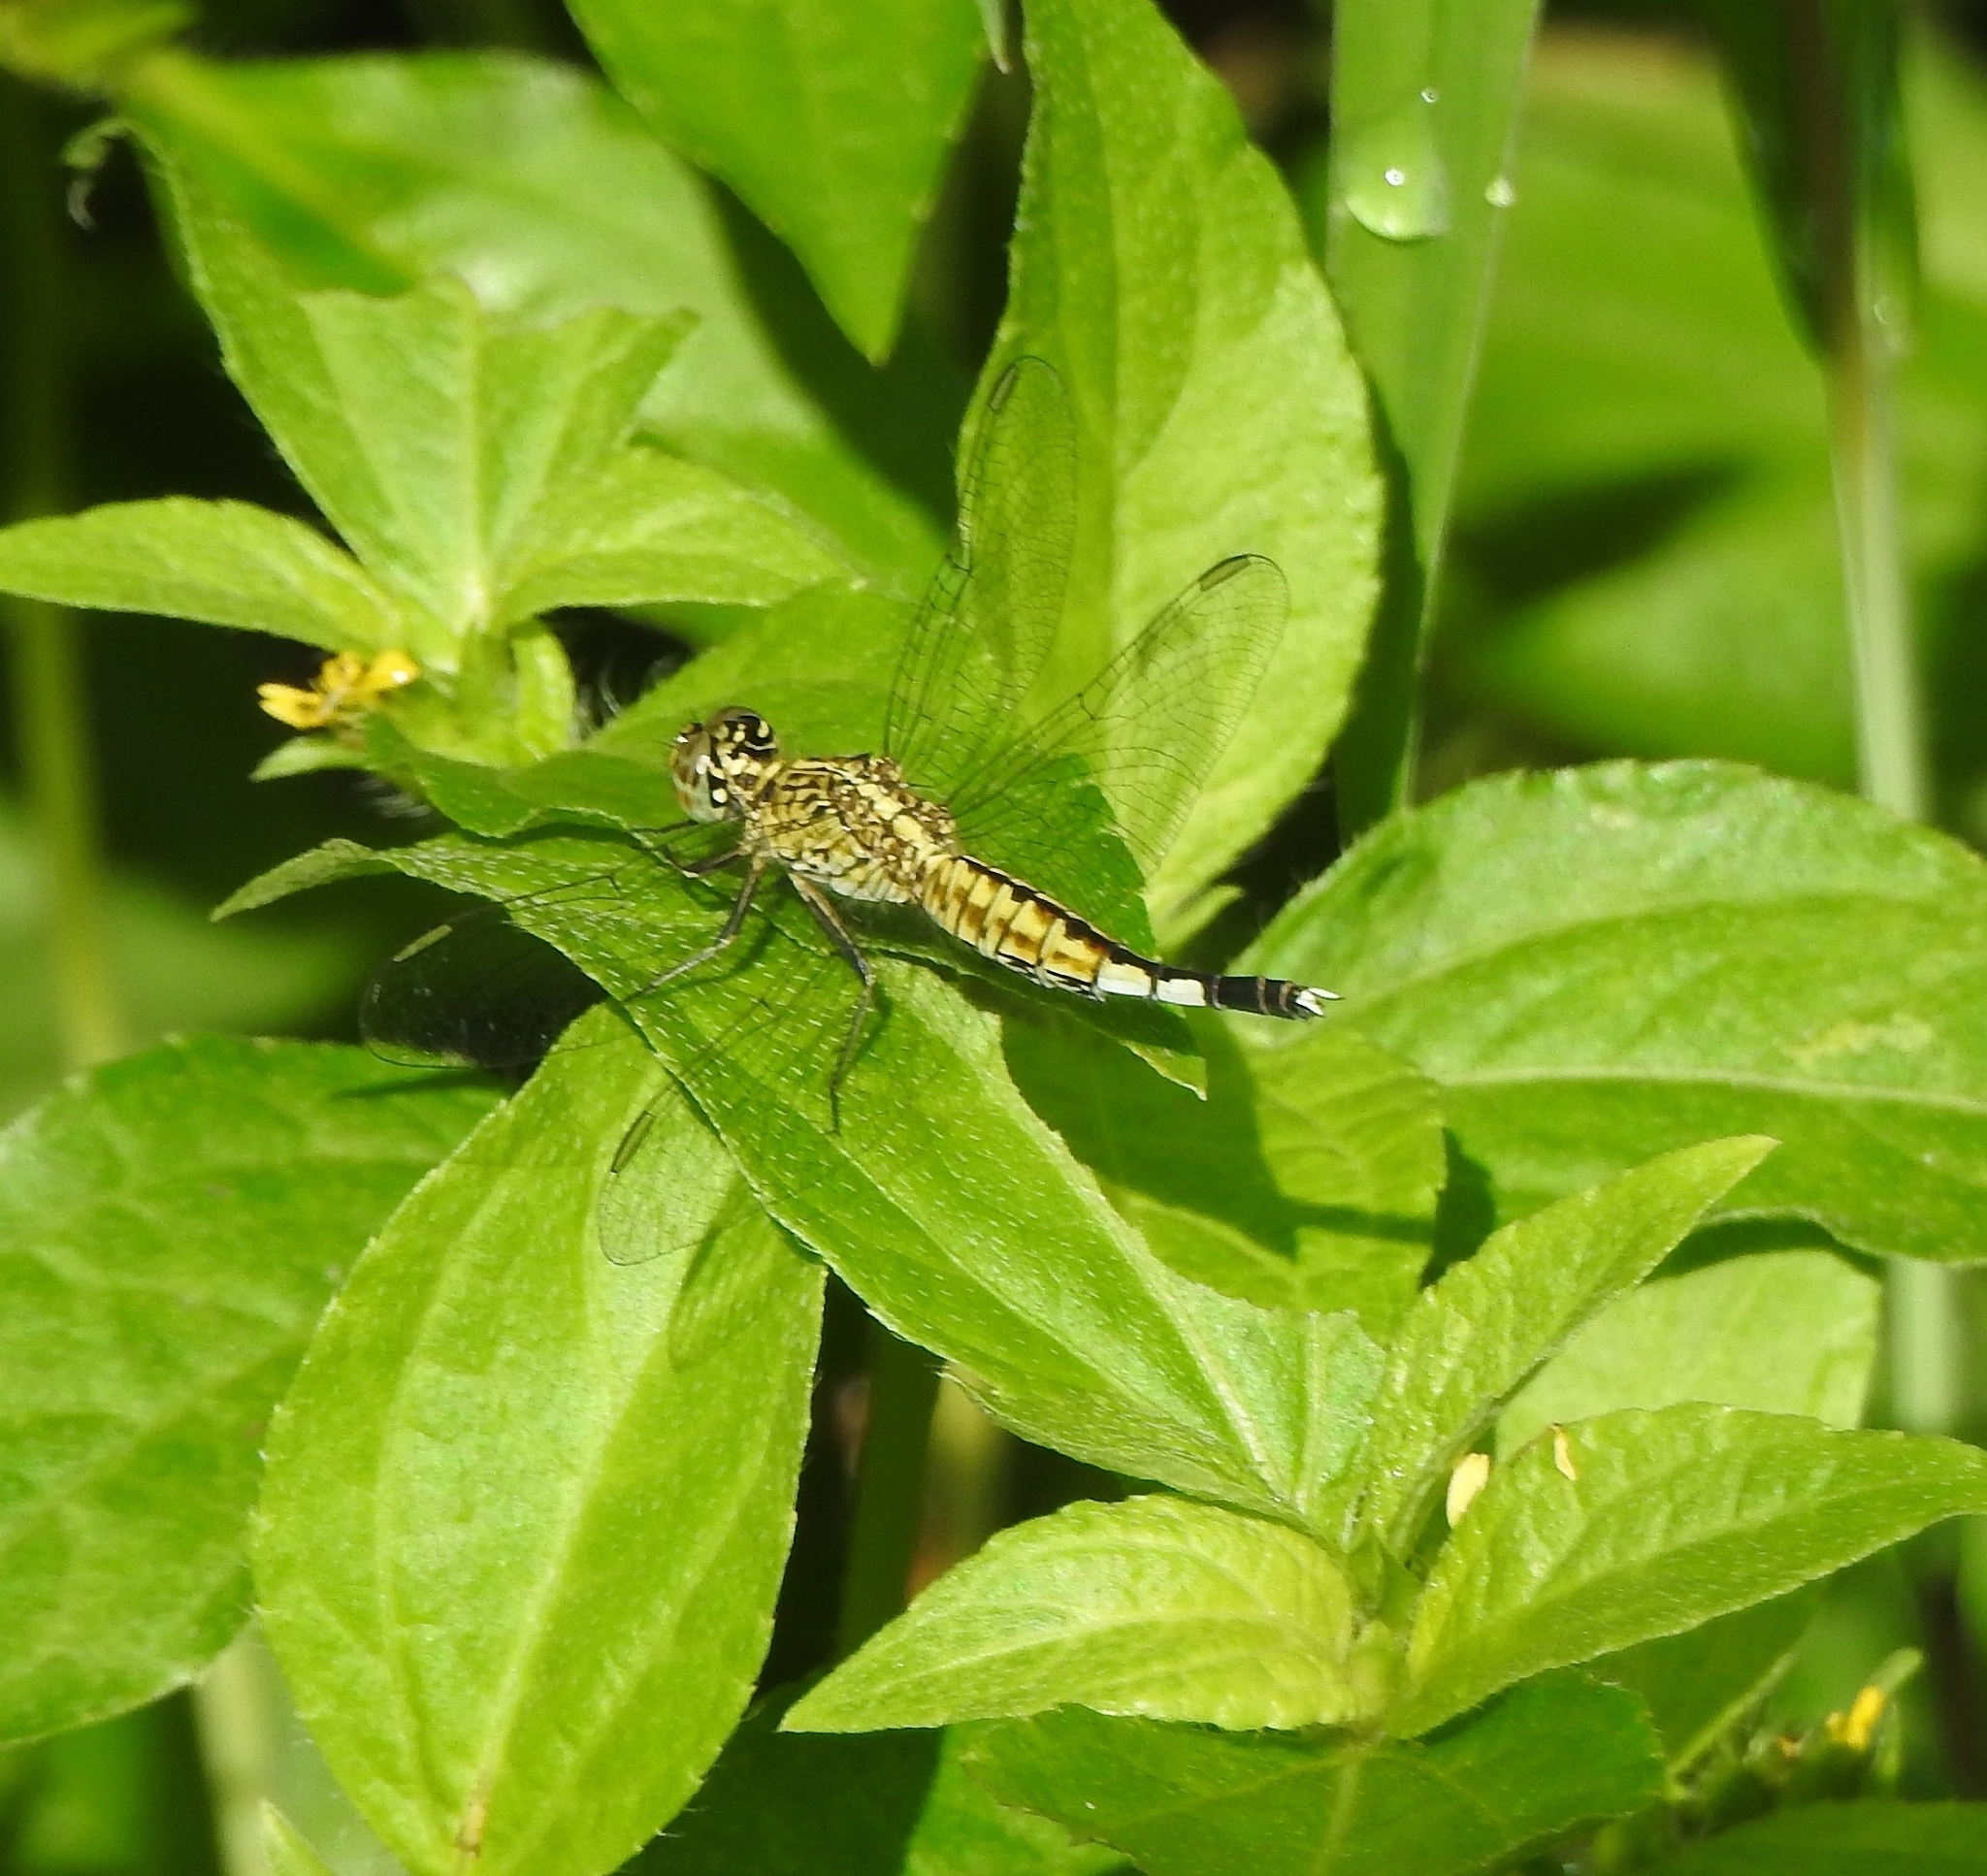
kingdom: Animalia
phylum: Arthropoda
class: Insecta
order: Odonata
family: Libellulidae
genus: Acisoma
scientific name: Acisoma panorpoides
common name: Asian pintail
